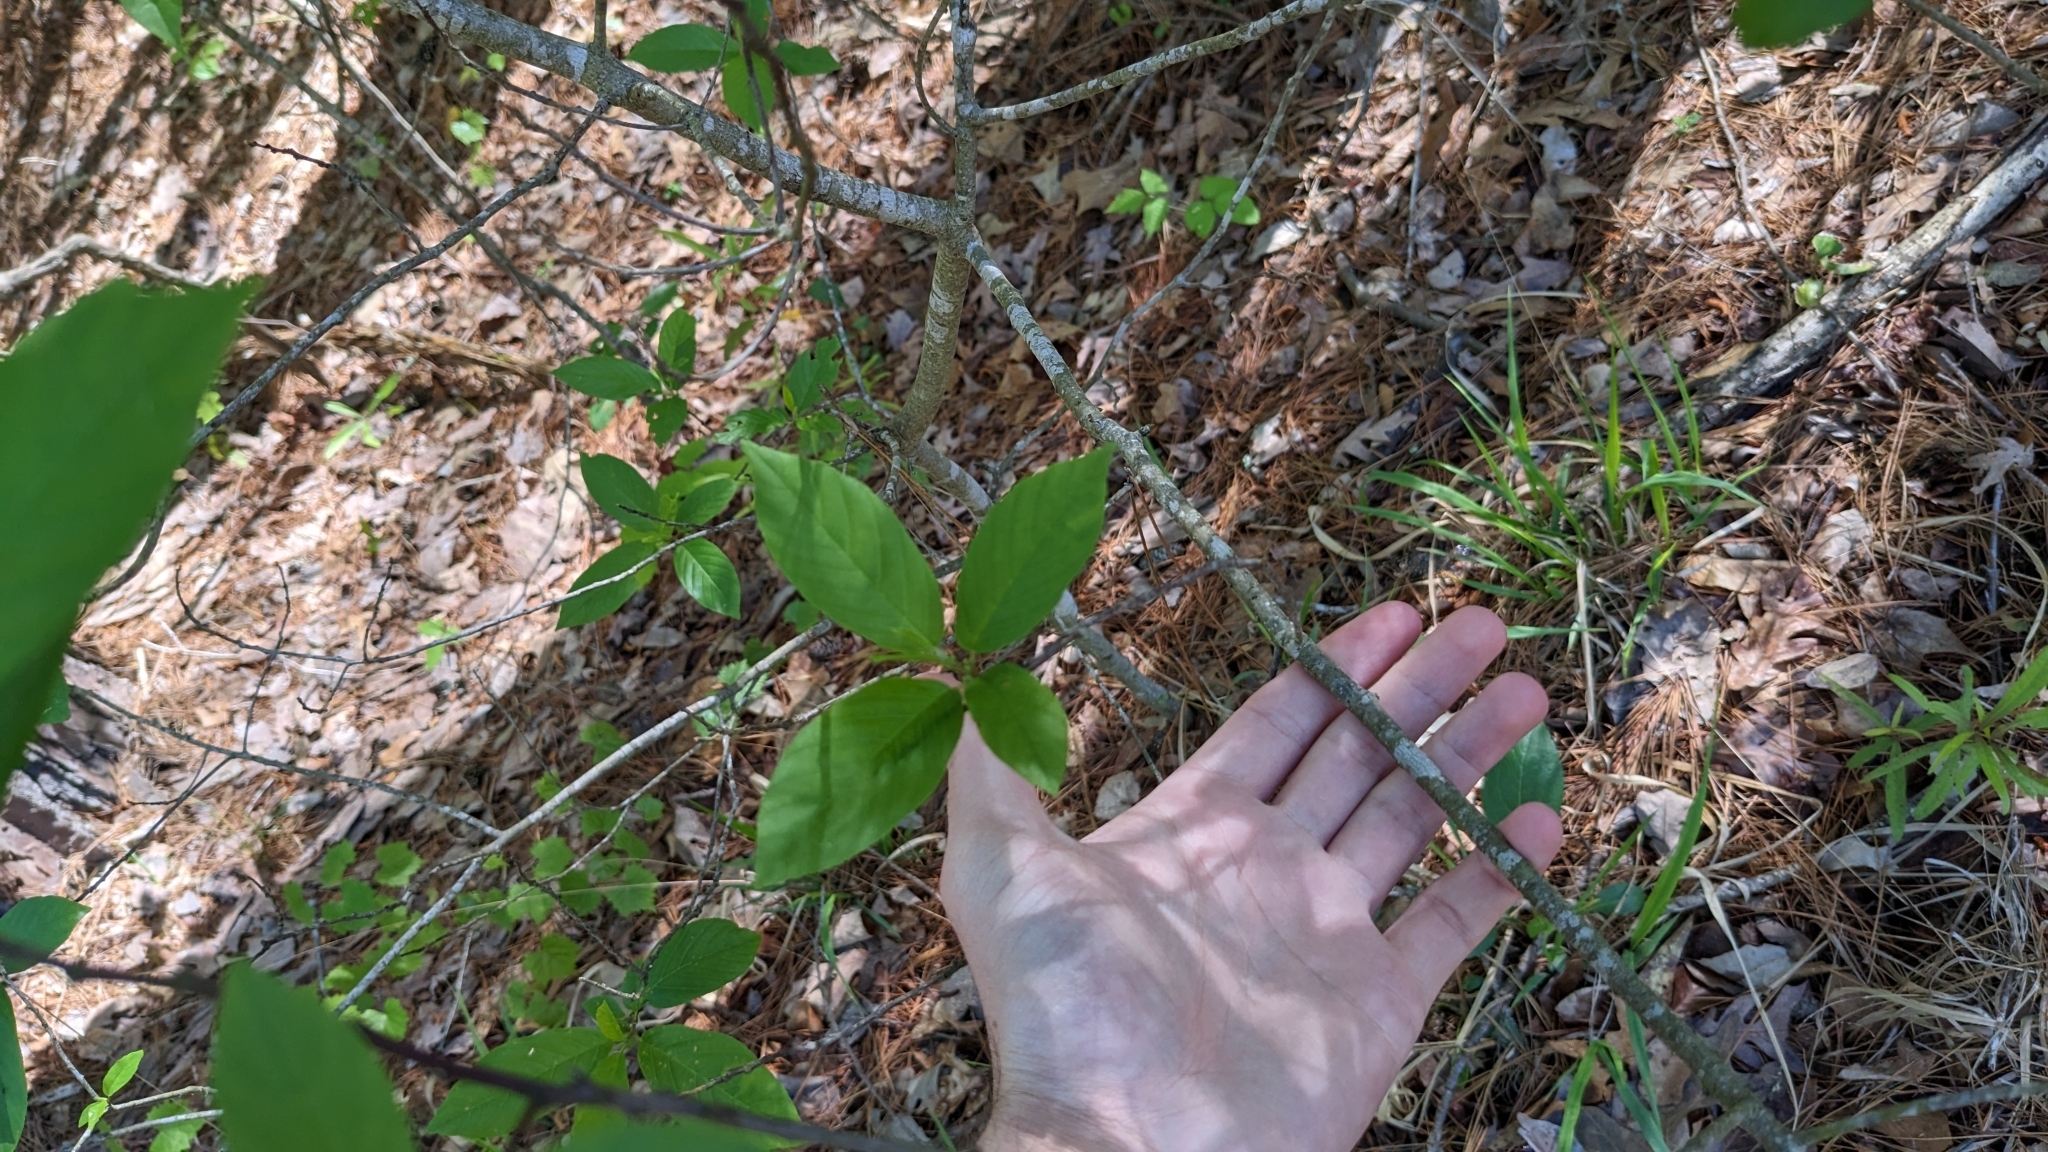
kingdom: Plantae
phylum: Tracheophyta
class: Magnoliopsida
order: Rosales
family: Rhamnaceae
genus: Frangula
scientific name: Frangula caroliniana
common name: Carolina buckthorn
